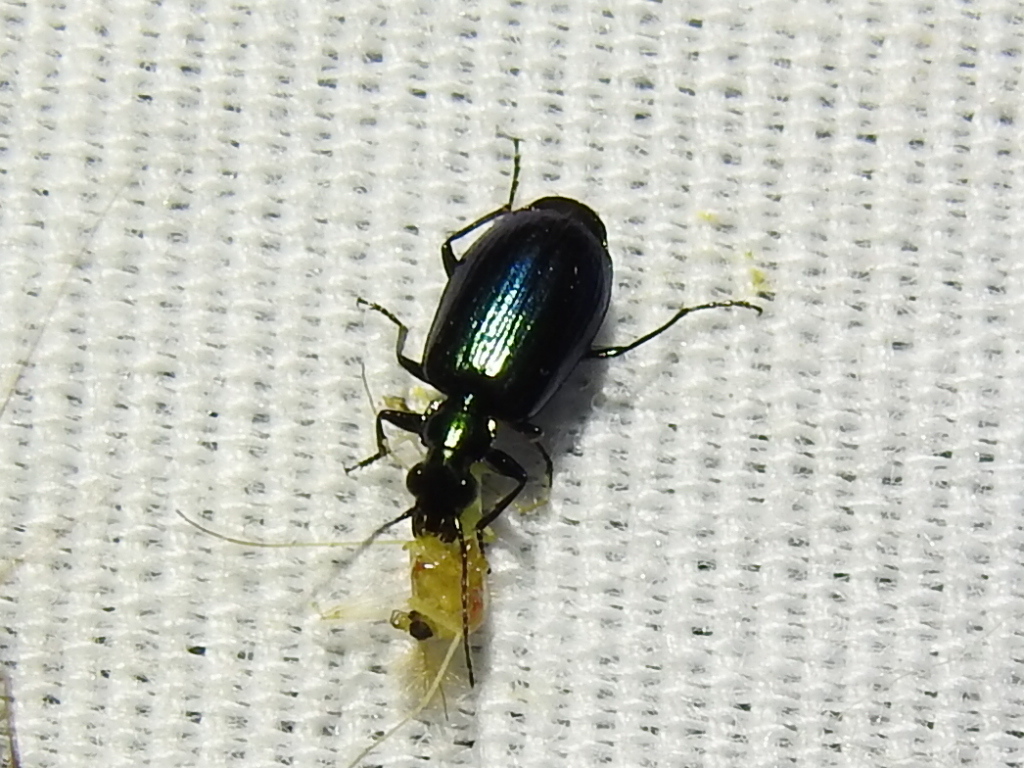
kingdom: Animalia
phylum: Arthropoda
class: Insecta
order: Coleoptera
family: Carabidae
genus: Lebia
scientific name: Lebia viridis
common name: Flower lebia beetle
